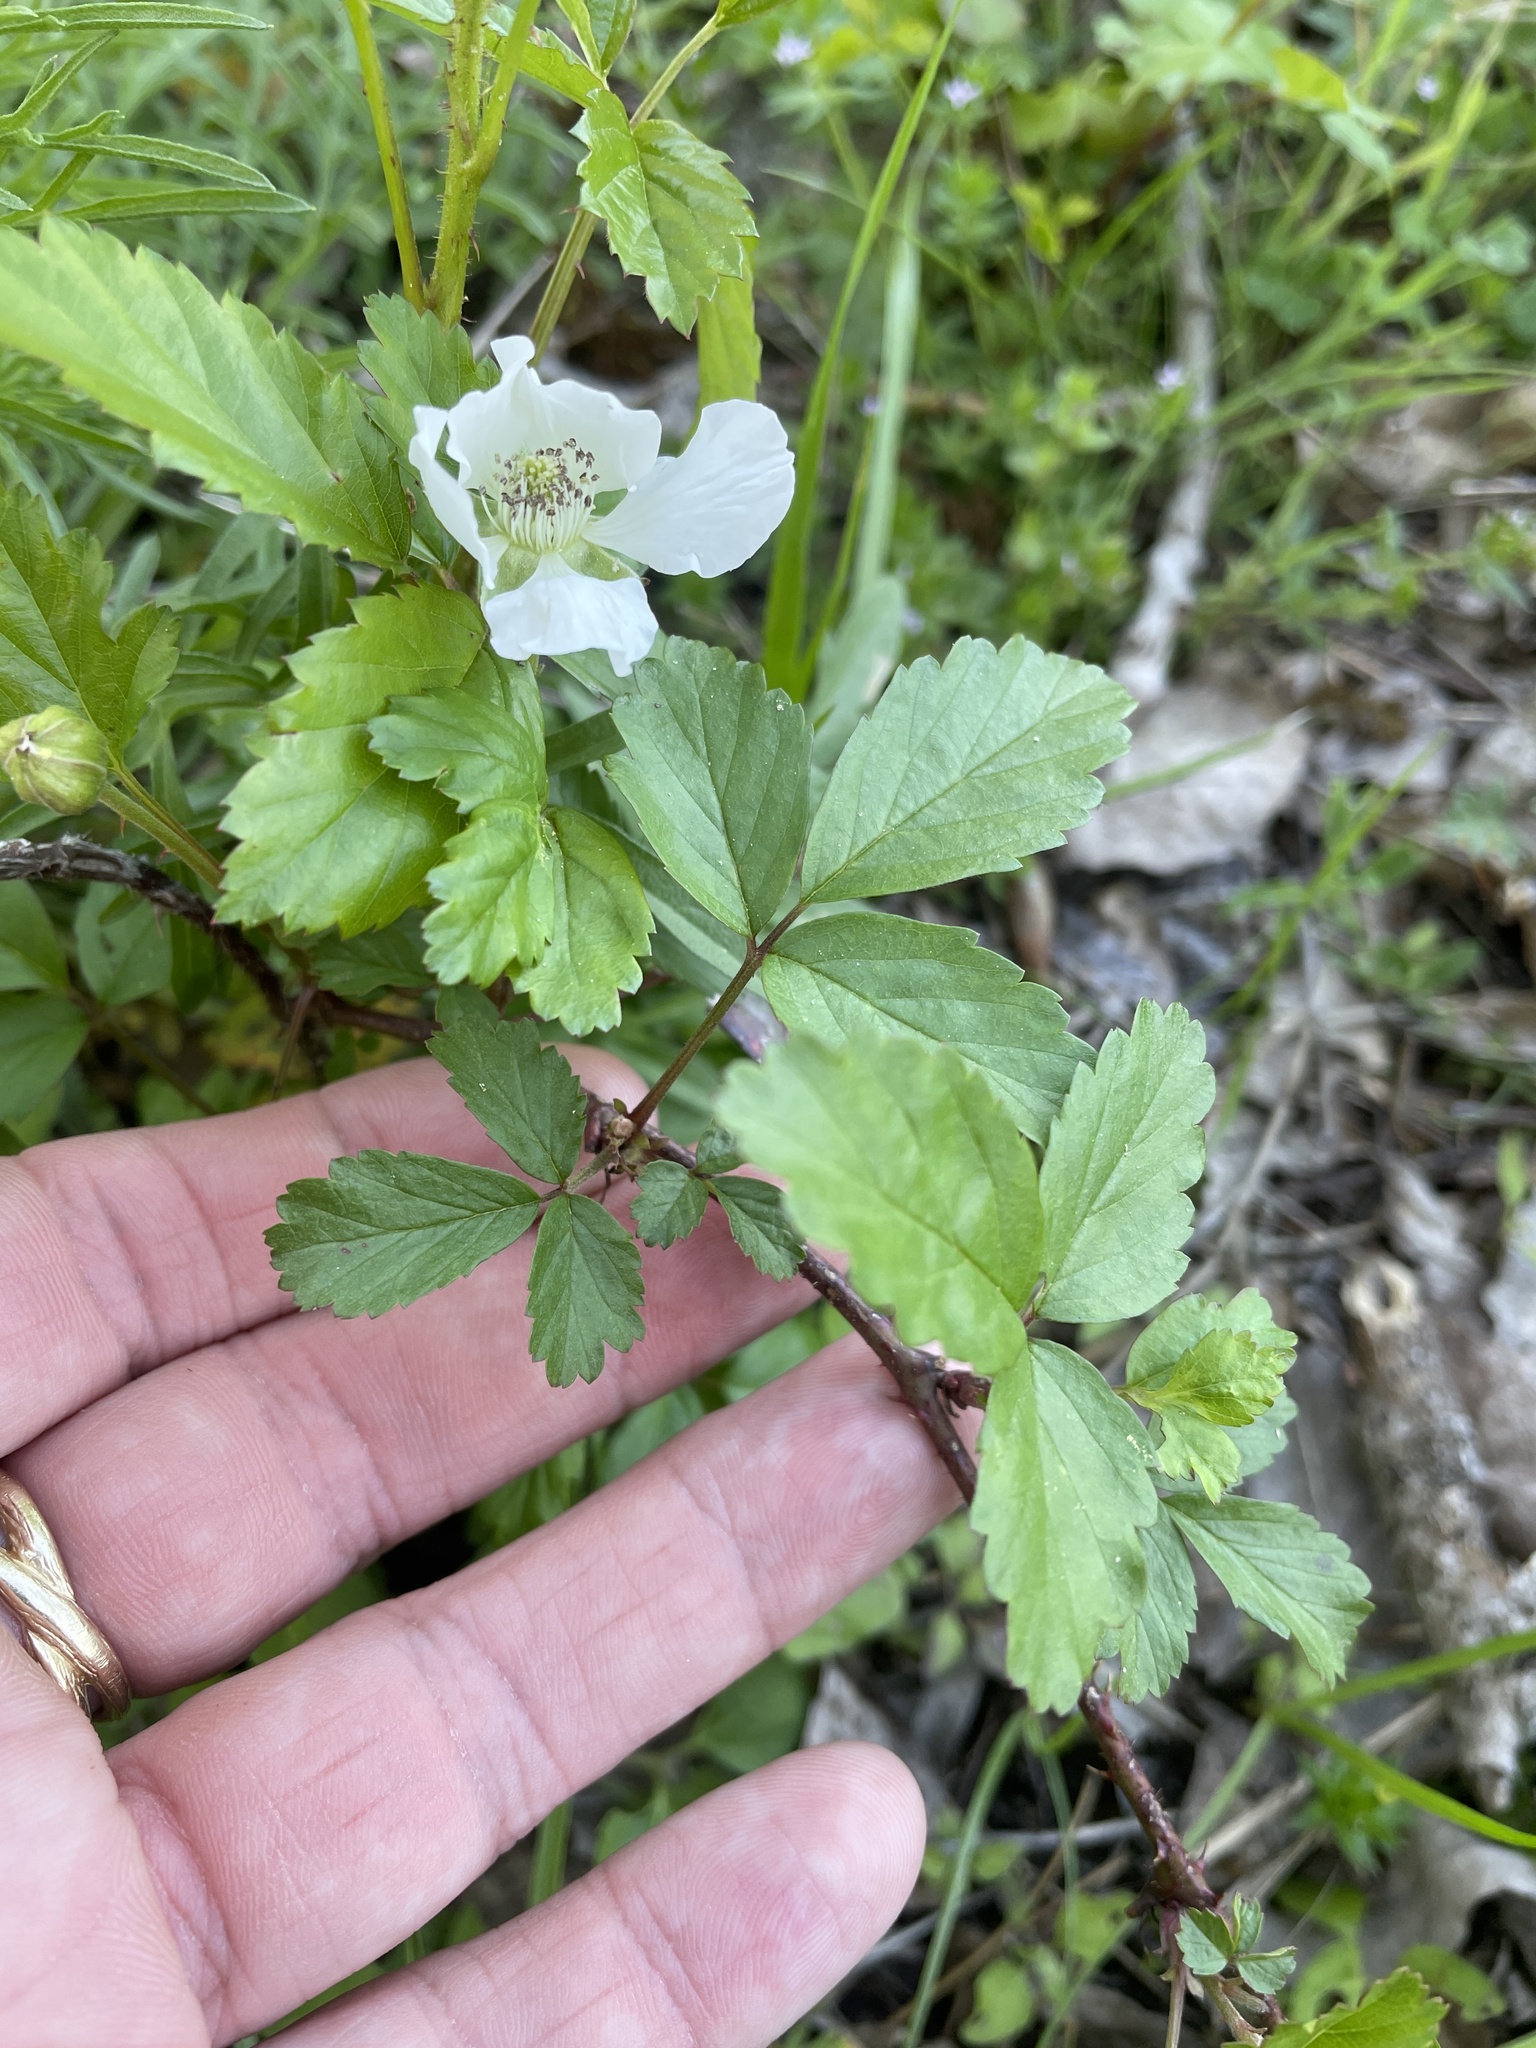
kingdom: Plantae
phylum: Tracheophyta
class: Magnoliopsida
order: Rosales
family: Rosaceae
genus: Rubus
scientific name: Rubus trivialis
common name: Southern dewberry
